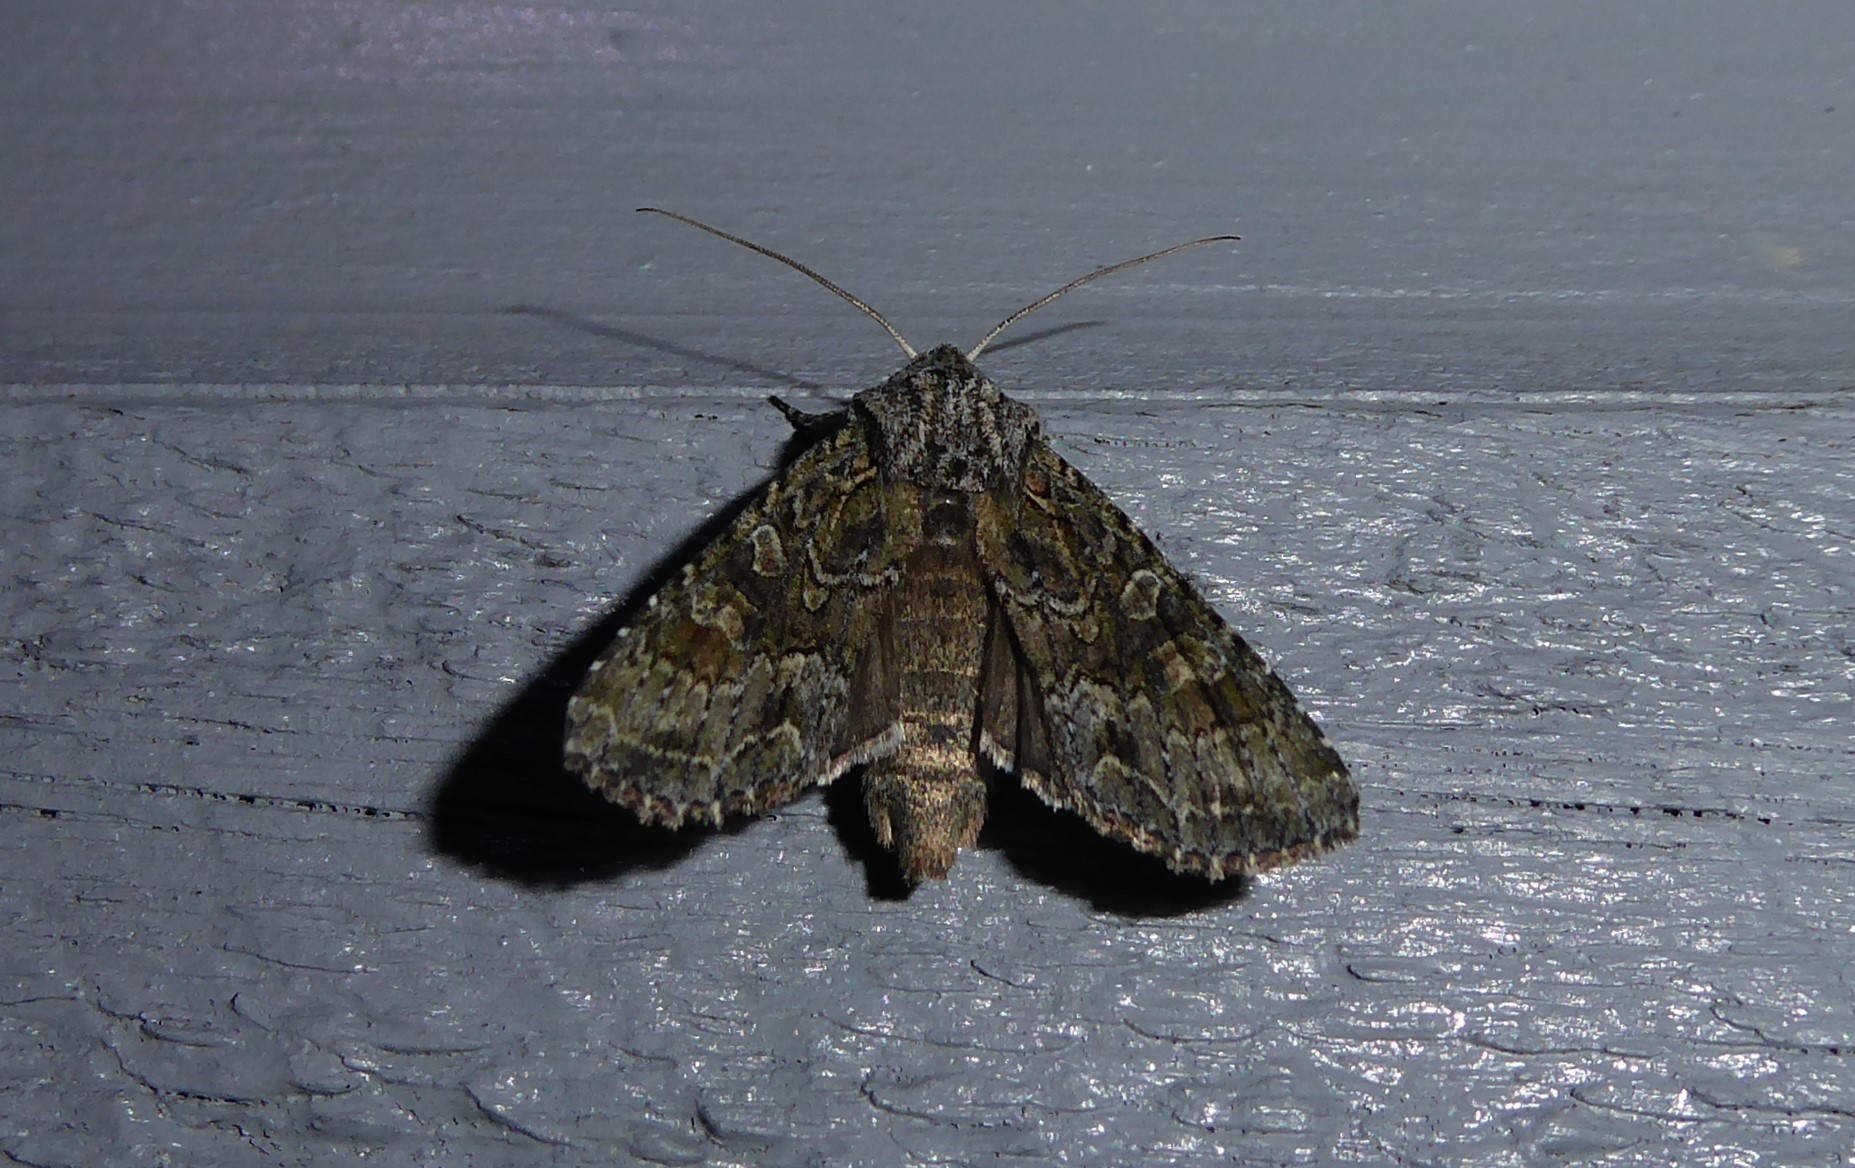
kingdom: Animalia
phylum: Arthropoda
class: Insecta
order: Lepidoptera
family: Noctuidae
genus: Ichneutica
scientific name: Ichneutica mutans
